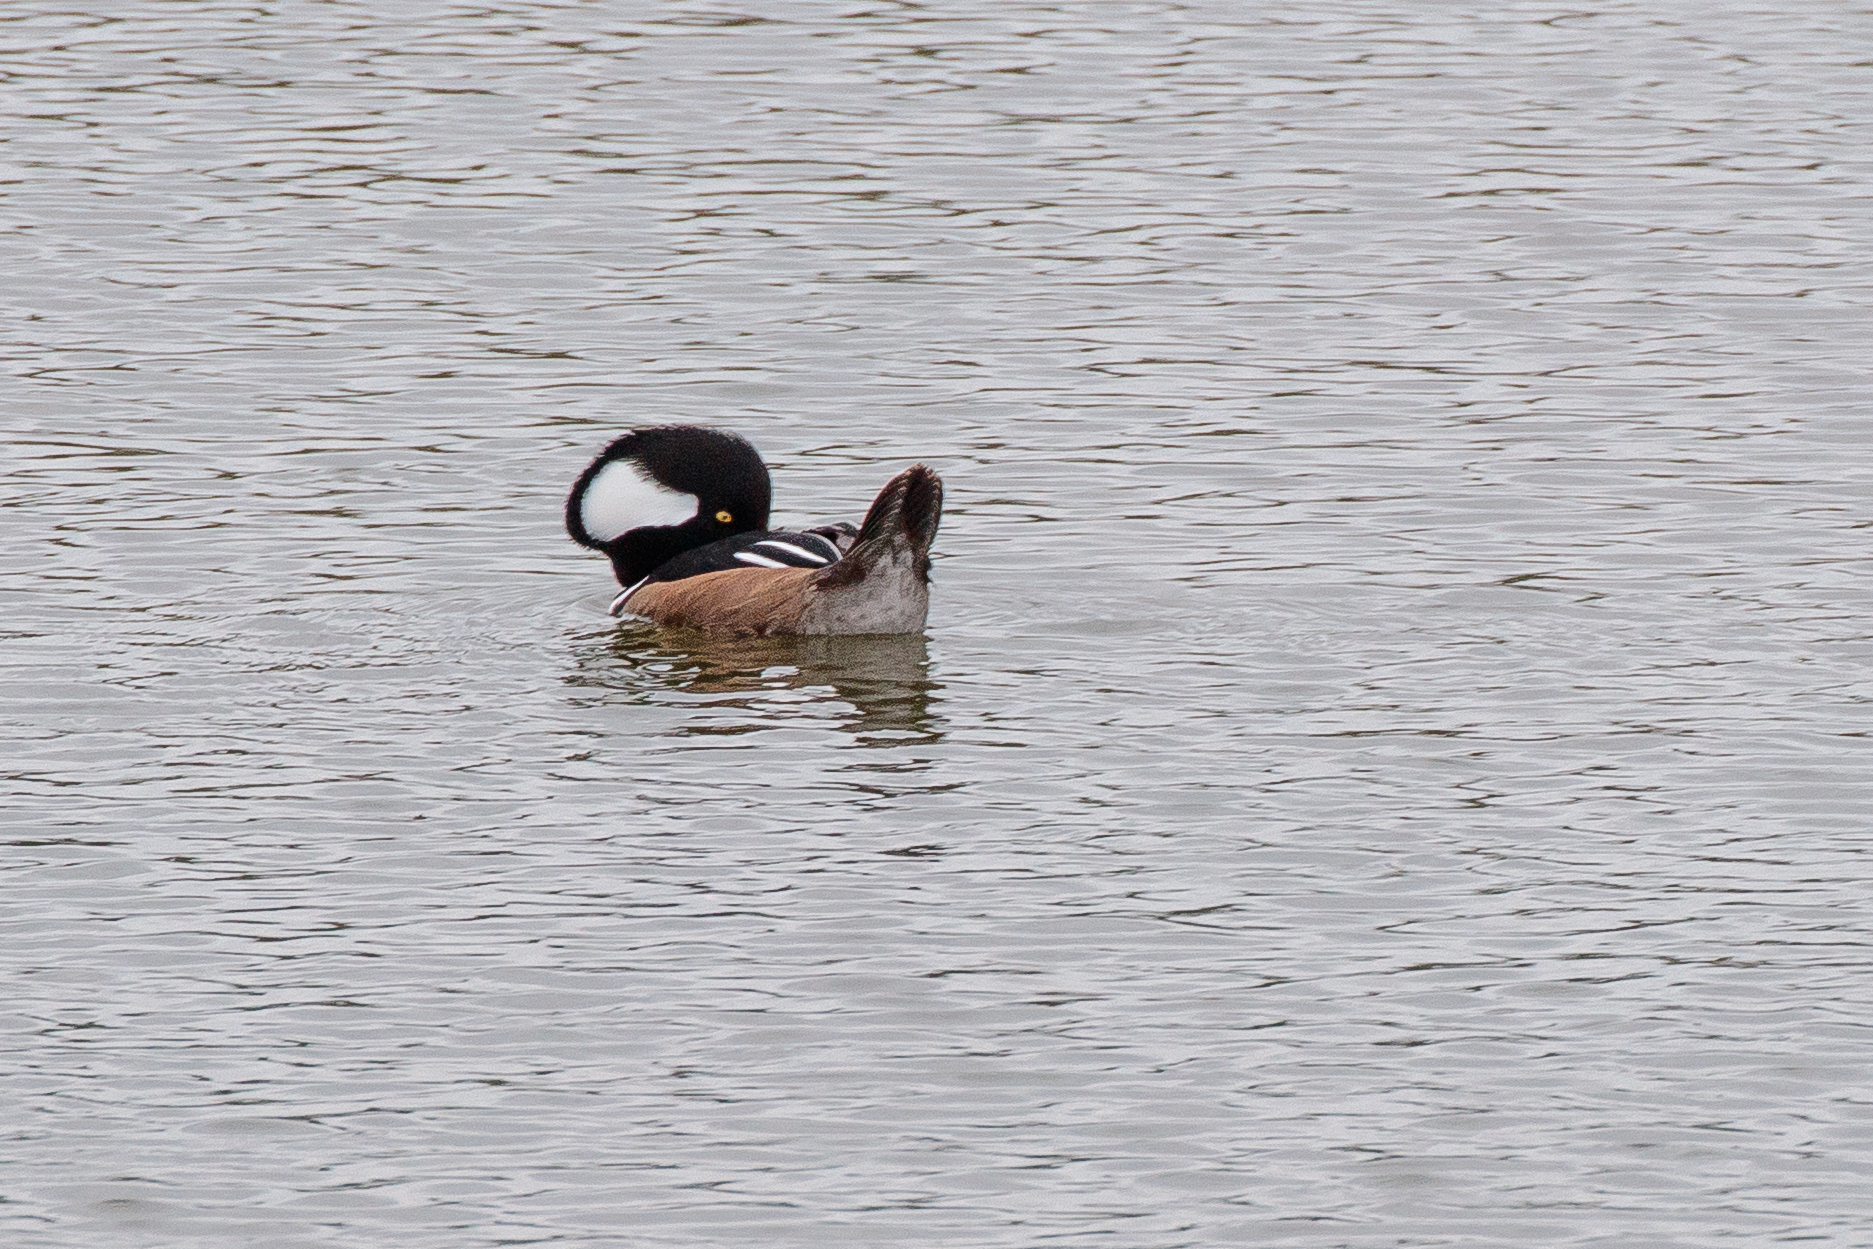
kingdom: Animalia
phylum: Chordata
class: Aves
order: Anseriformes
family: Anatidae
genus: Lophodytes
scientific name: Lophodytes cucullatus
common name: Hooded merganser
